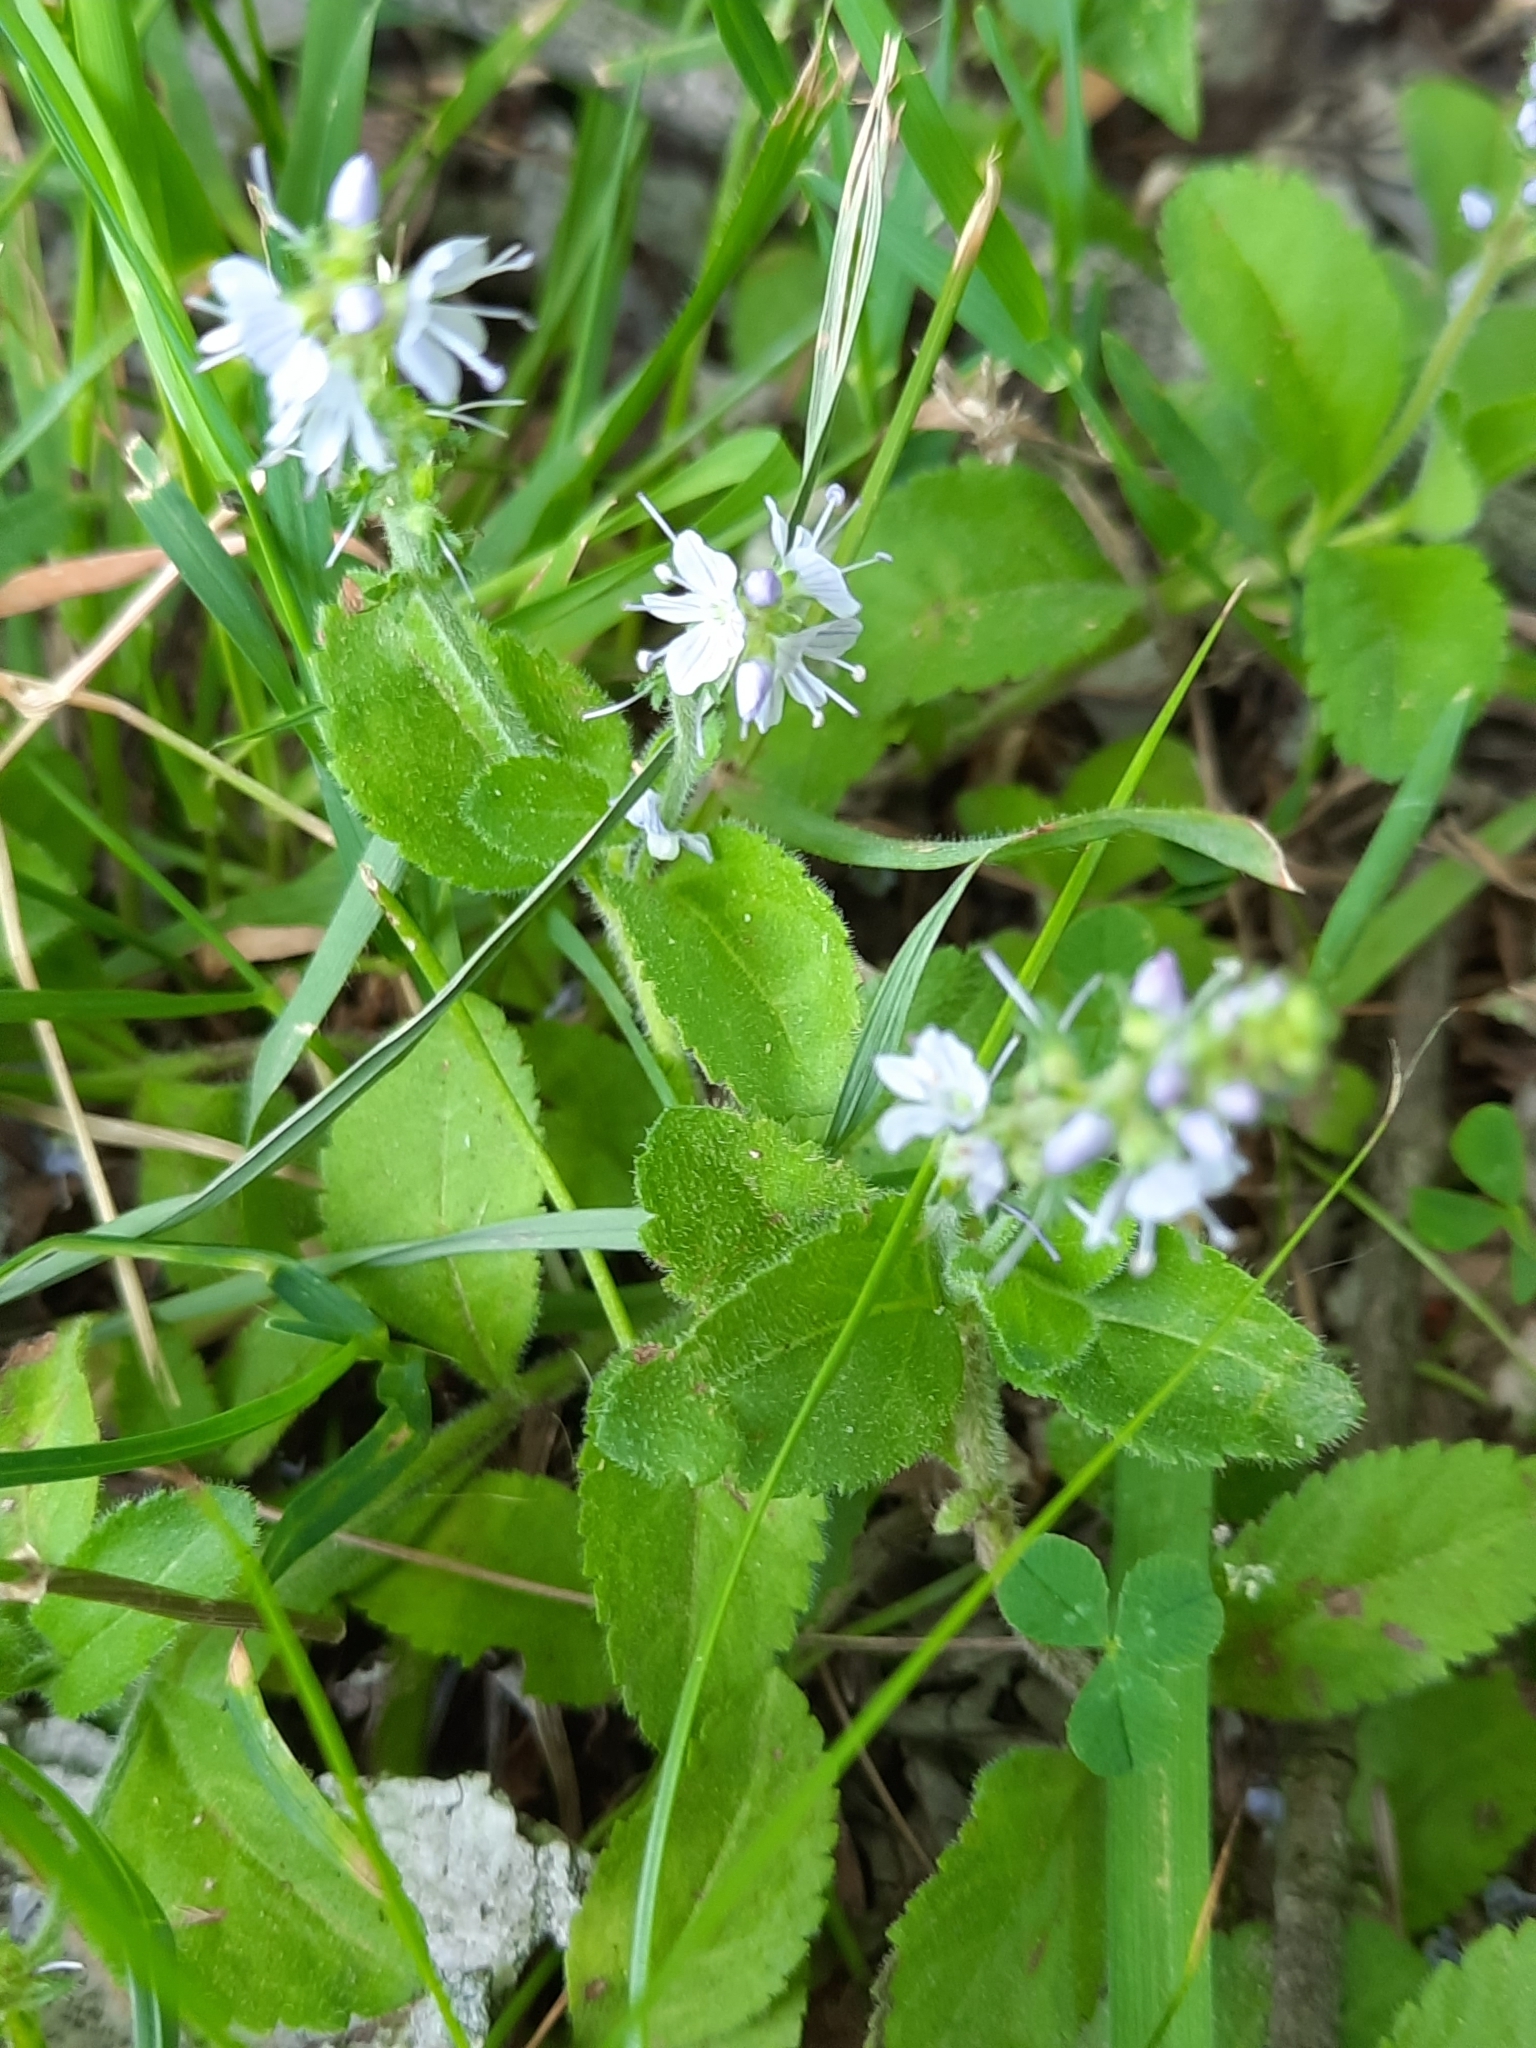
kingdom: Plantae
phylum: Tracheophyta
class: Magnoliopsida
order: Lamiales
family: Plantaginaceae
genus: Veronica
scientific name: Veronica officinalis
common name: Common speedwell
